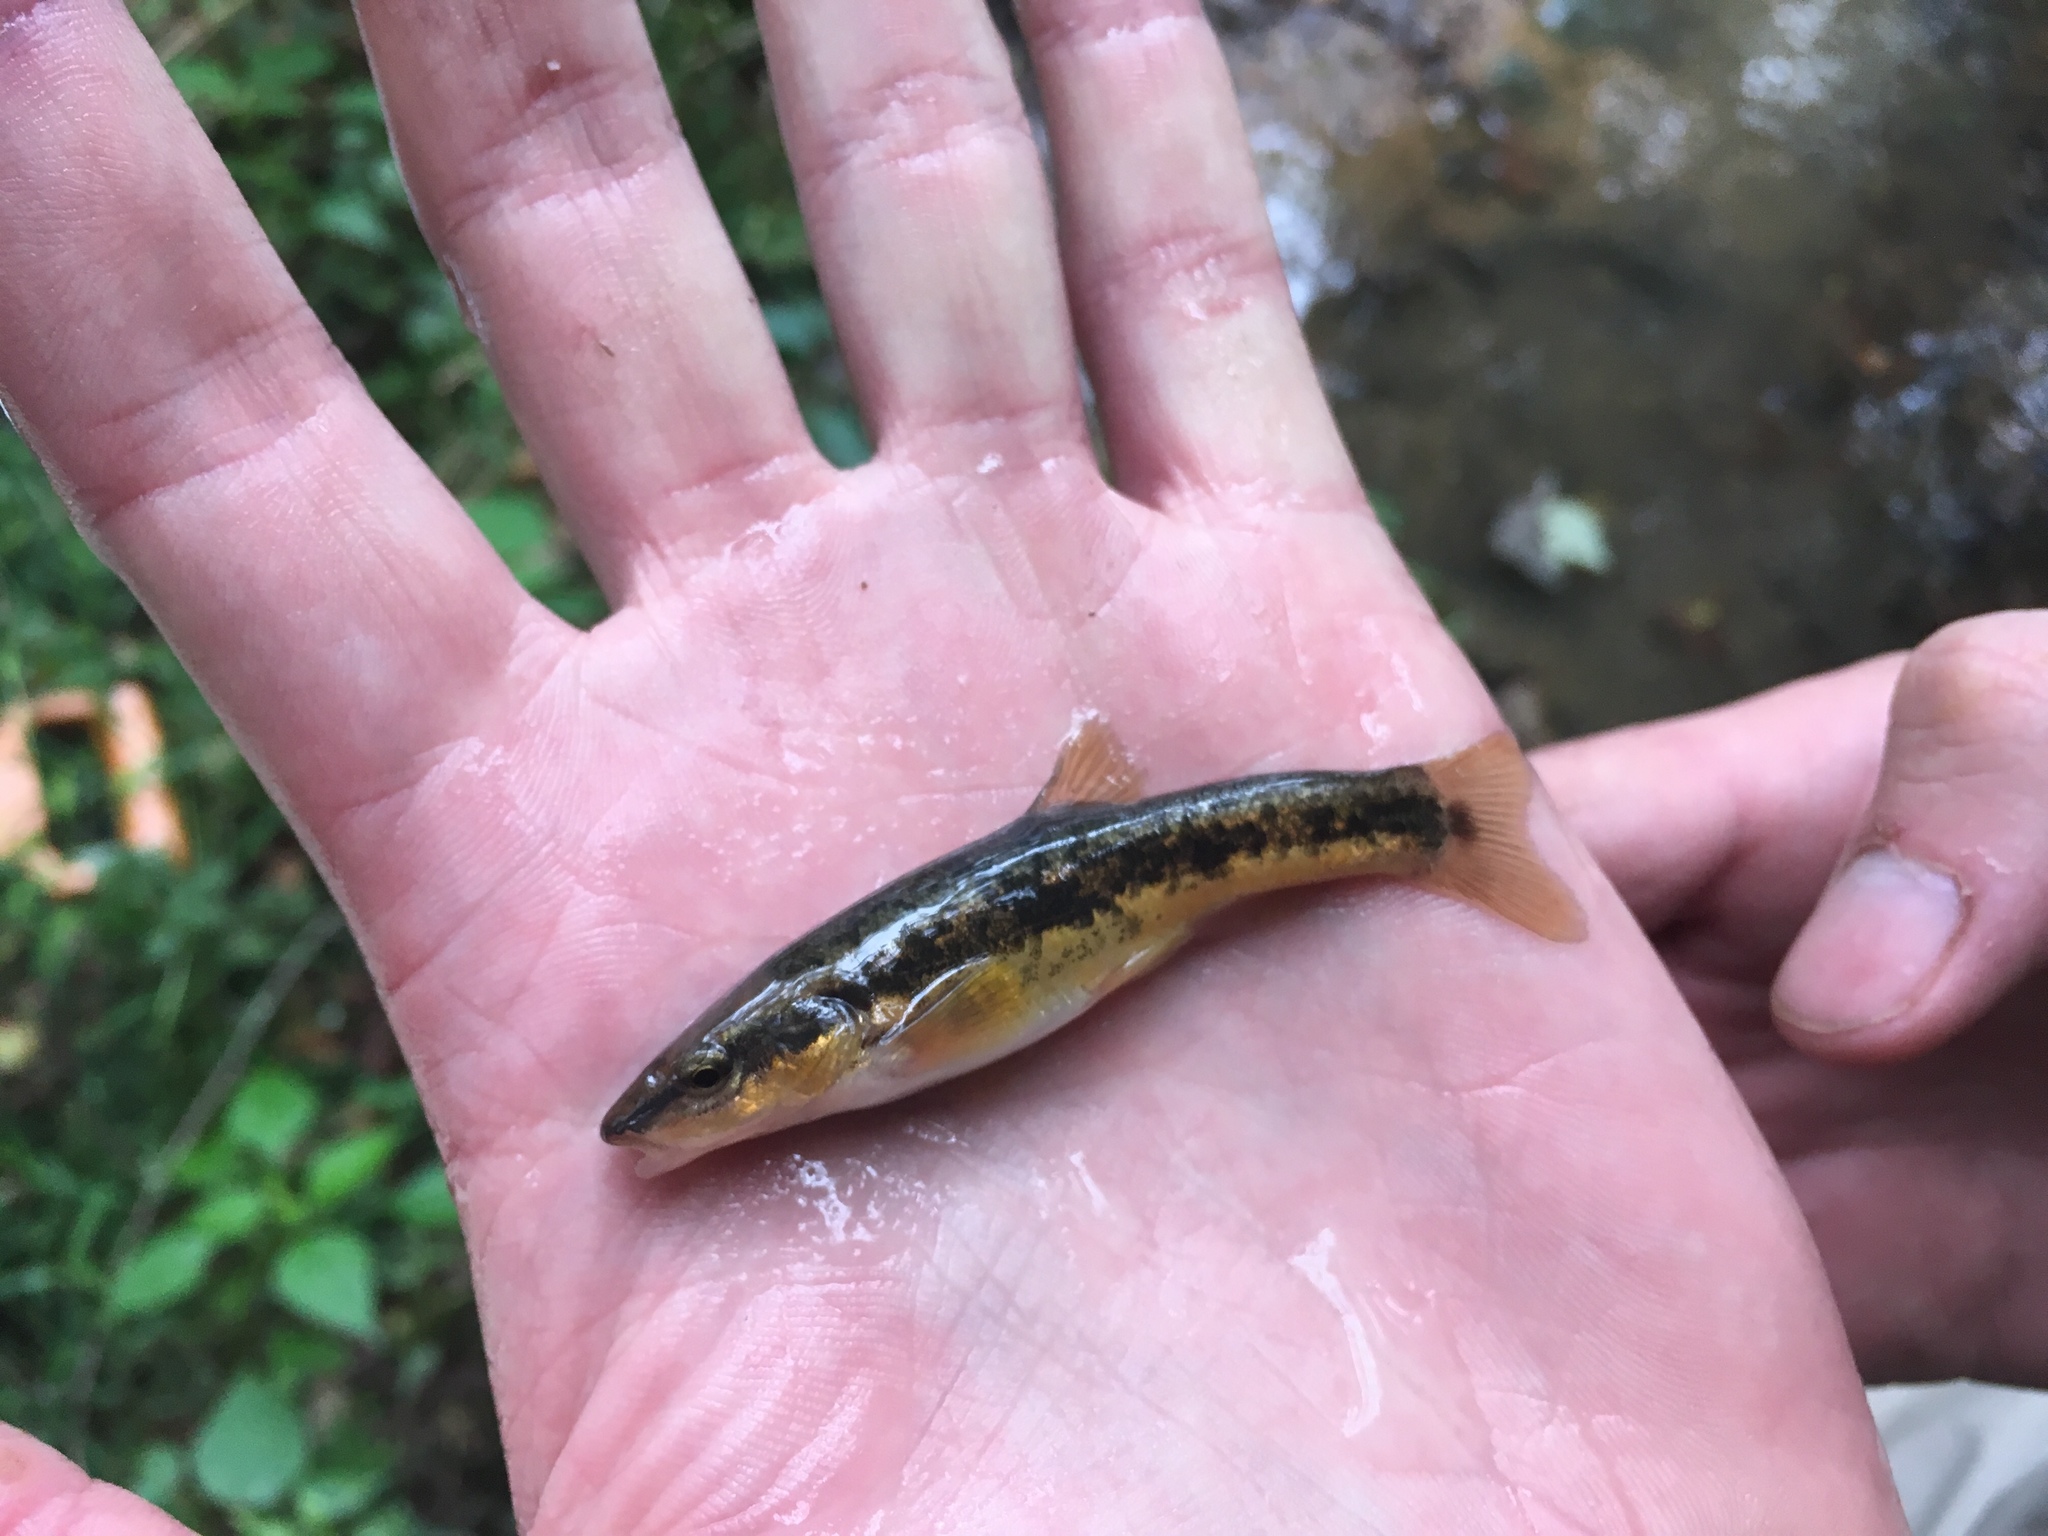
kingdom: Animalia
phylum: Chordata
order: Cypriniformes
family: Cyprinidae
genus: Rhinichthys
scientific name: Rhinichthys obtusus
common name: Western blacknose dace
